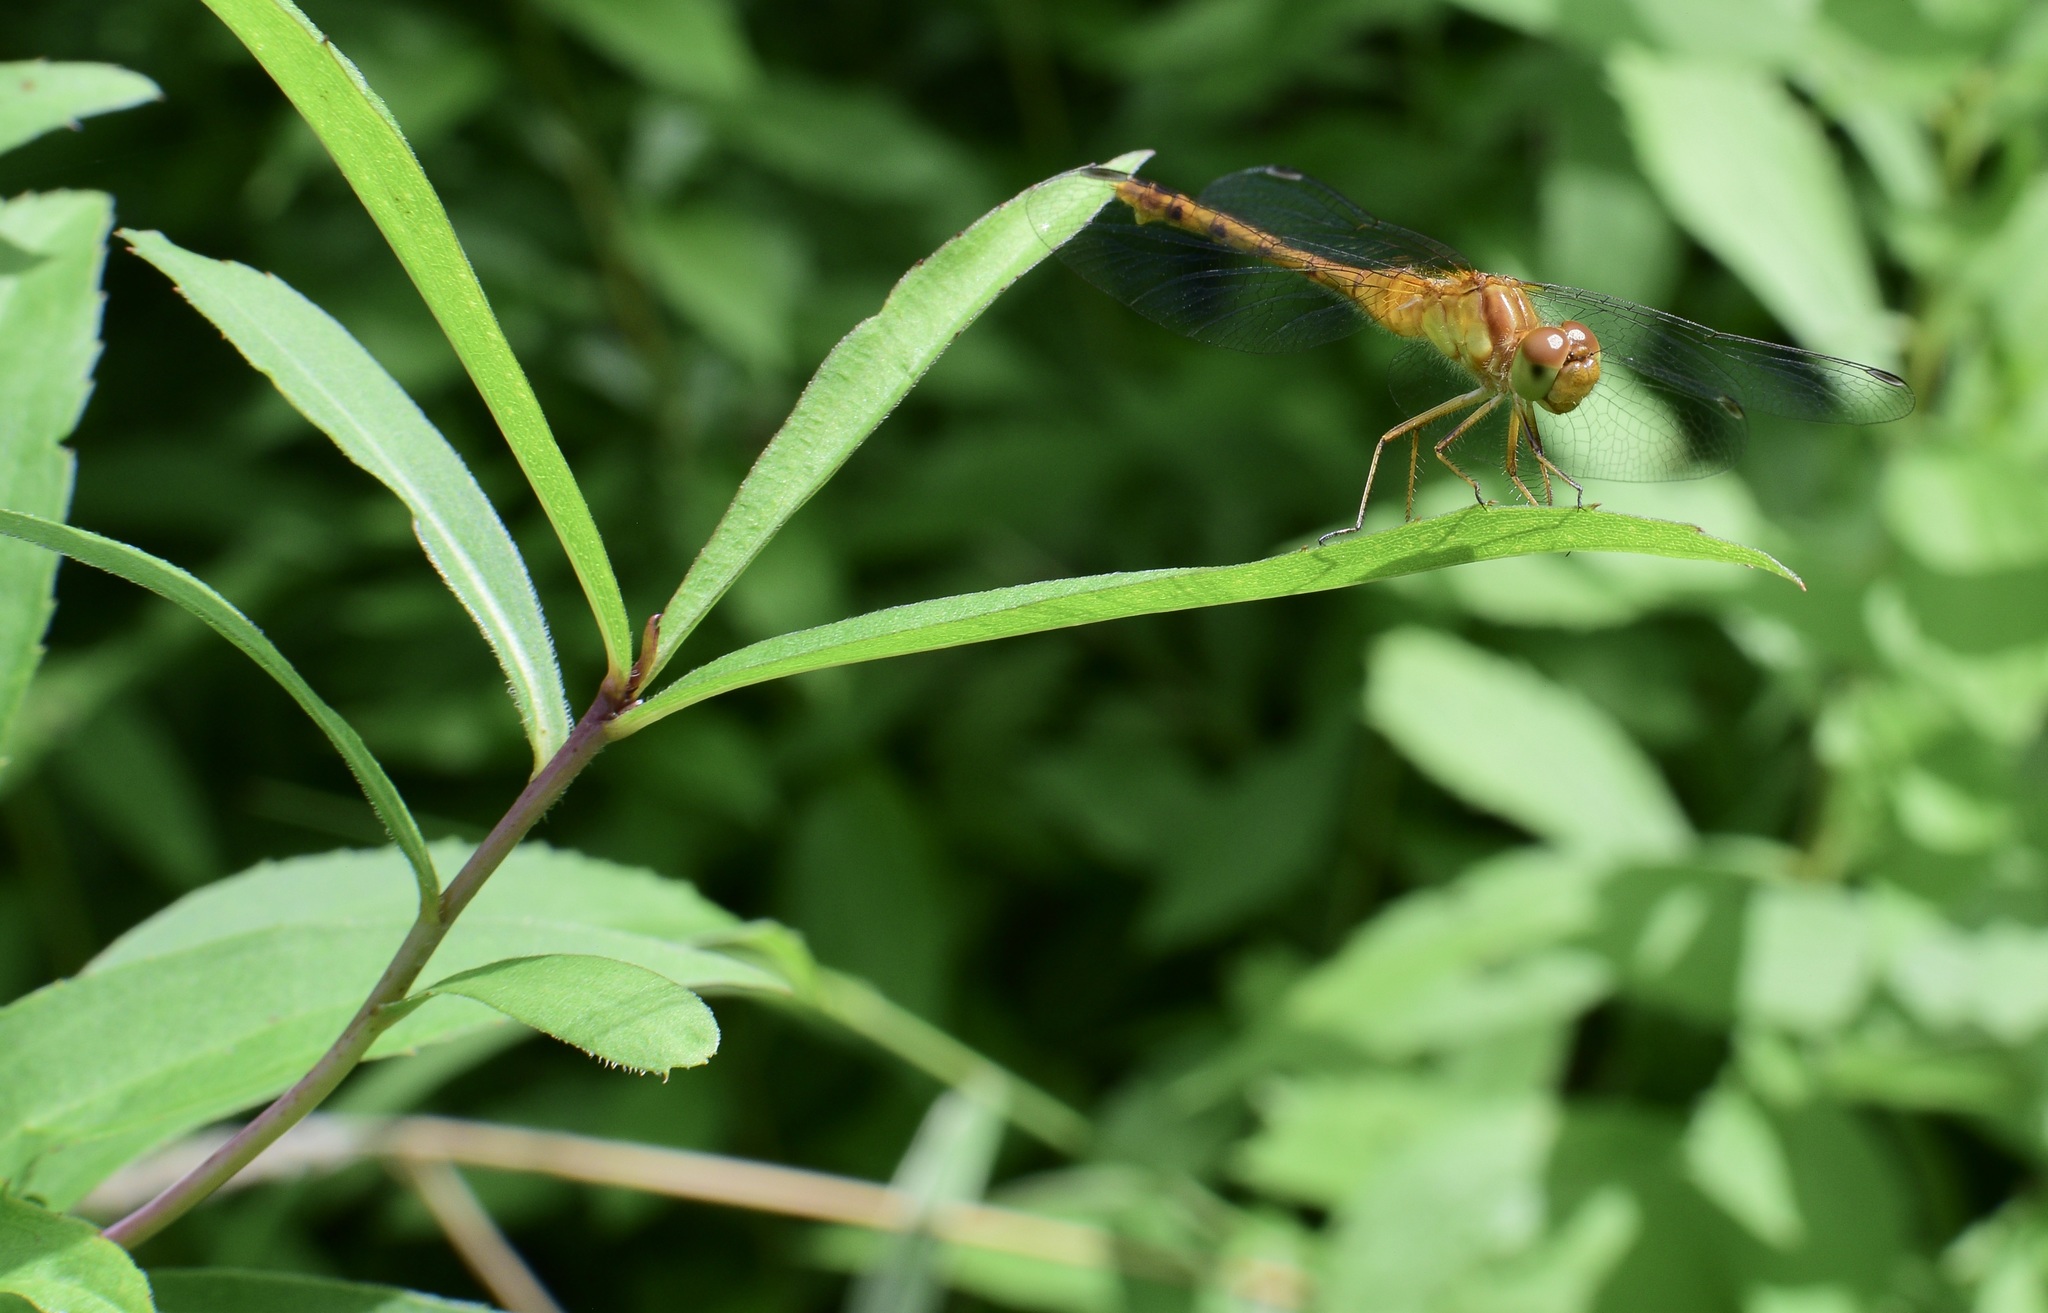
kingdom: Animalia
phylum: Arthropoda
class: Insecta
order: Odonata
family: Libellulidae
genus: Sympetrum
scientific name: Sympetrum vicinum
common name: Autumn meadowhawk
